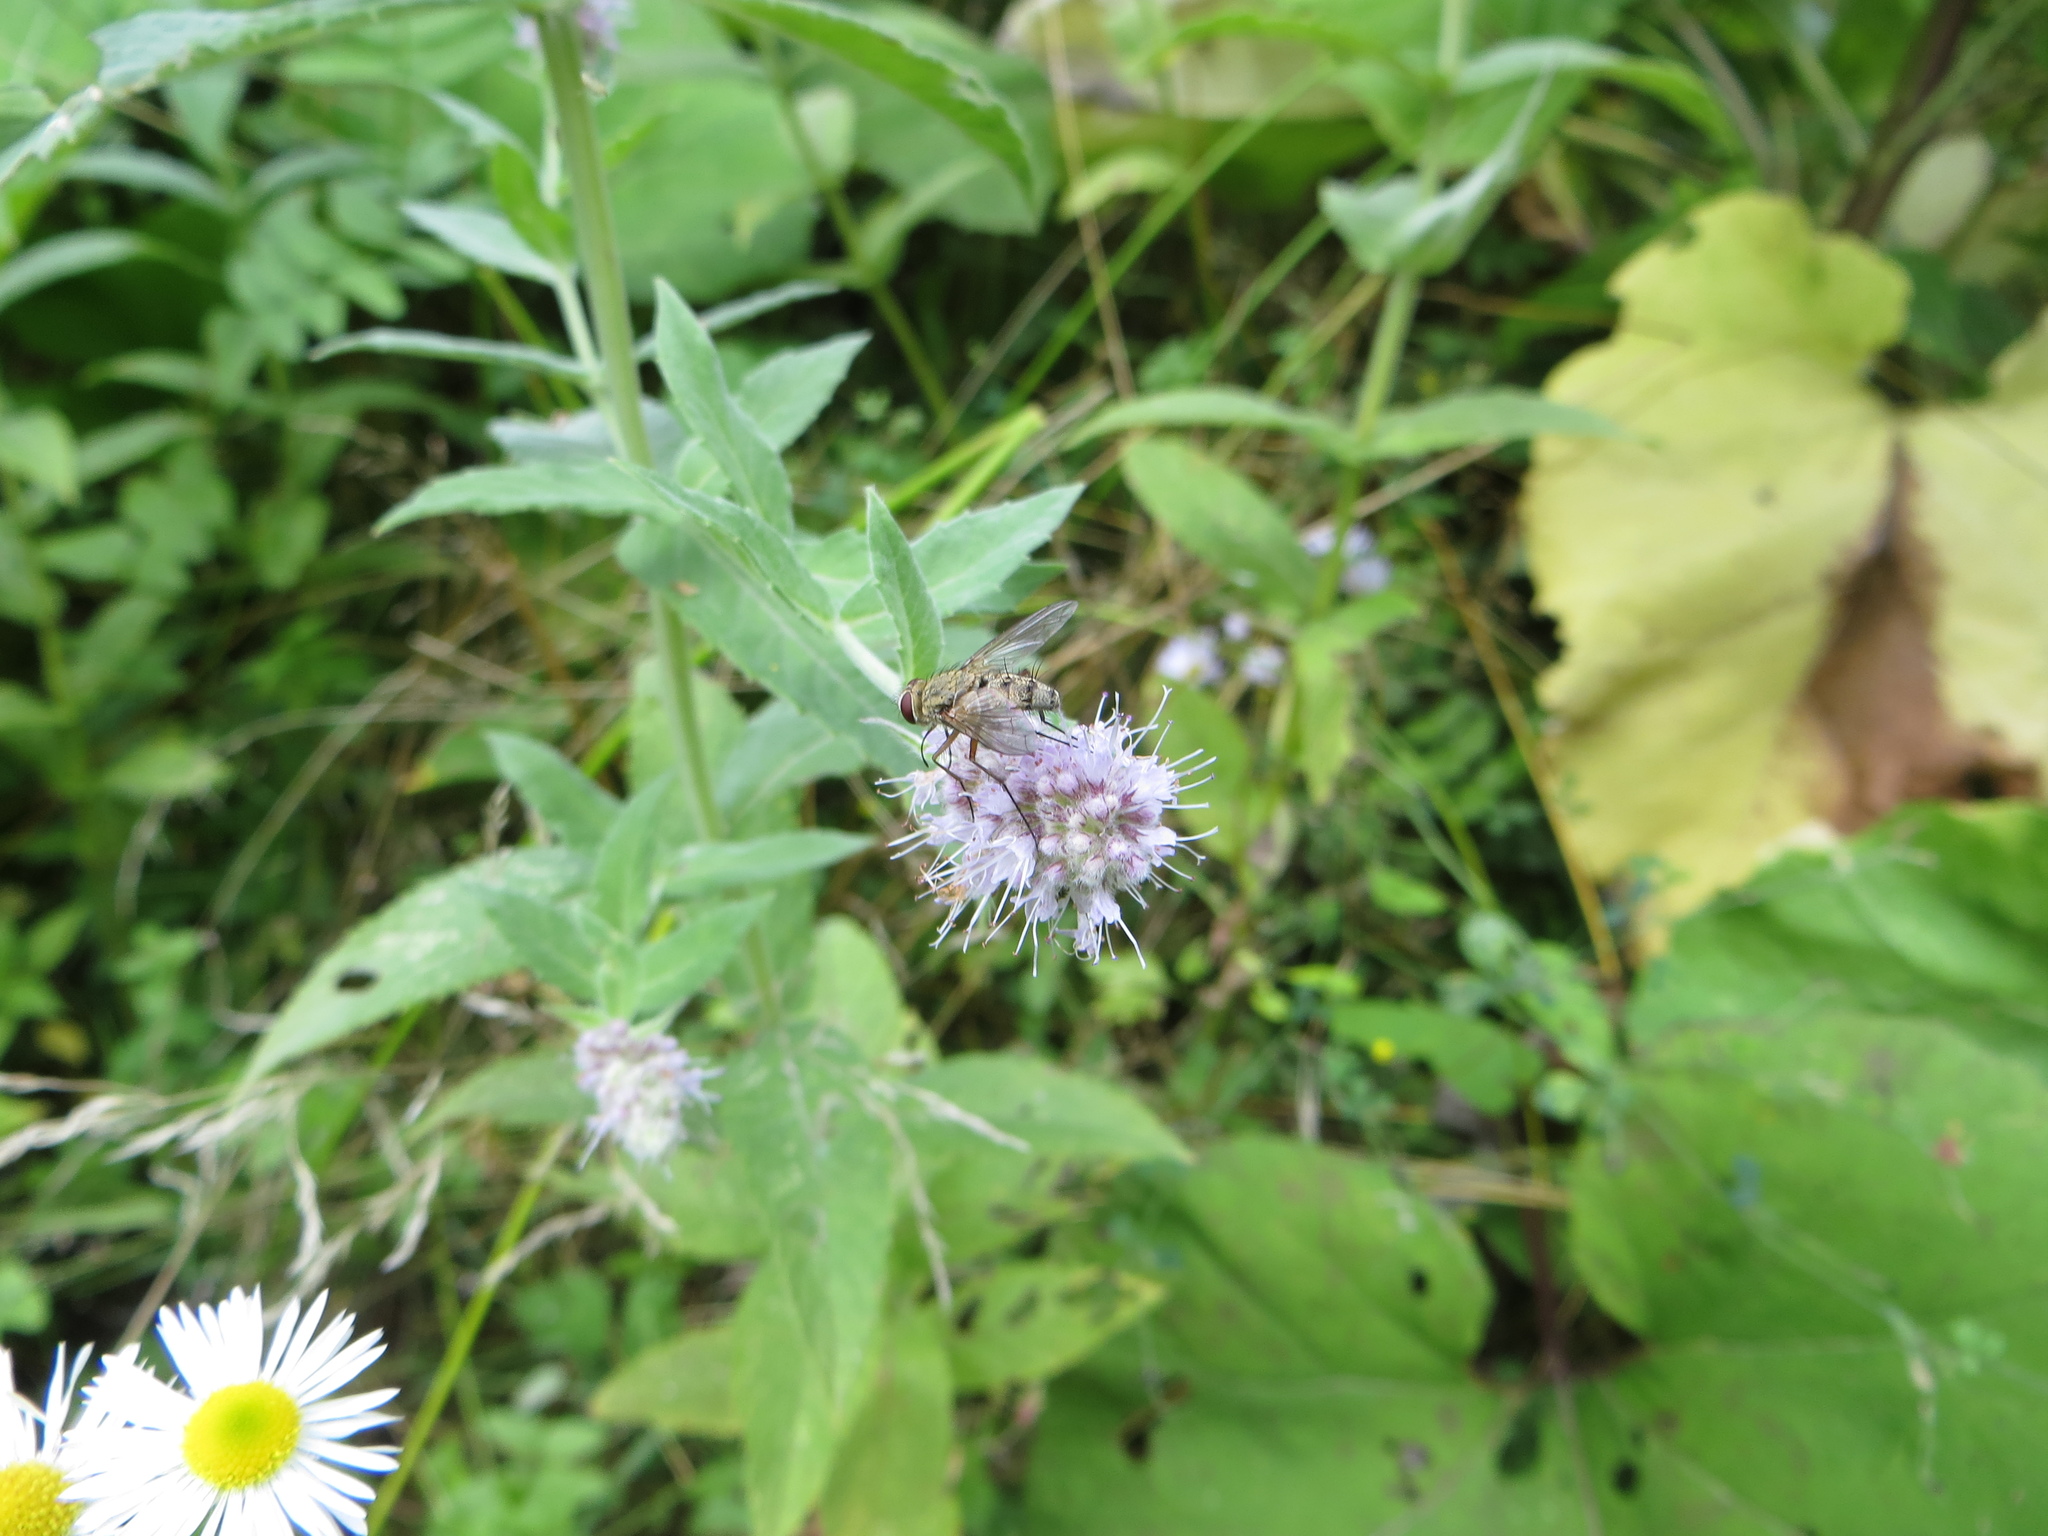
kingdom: Animalia
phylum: Arthropoda
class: Insecta
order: Diptera
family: Tachinidae
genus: Prosena
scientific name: Prosena siberita
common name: Parasitic fly
